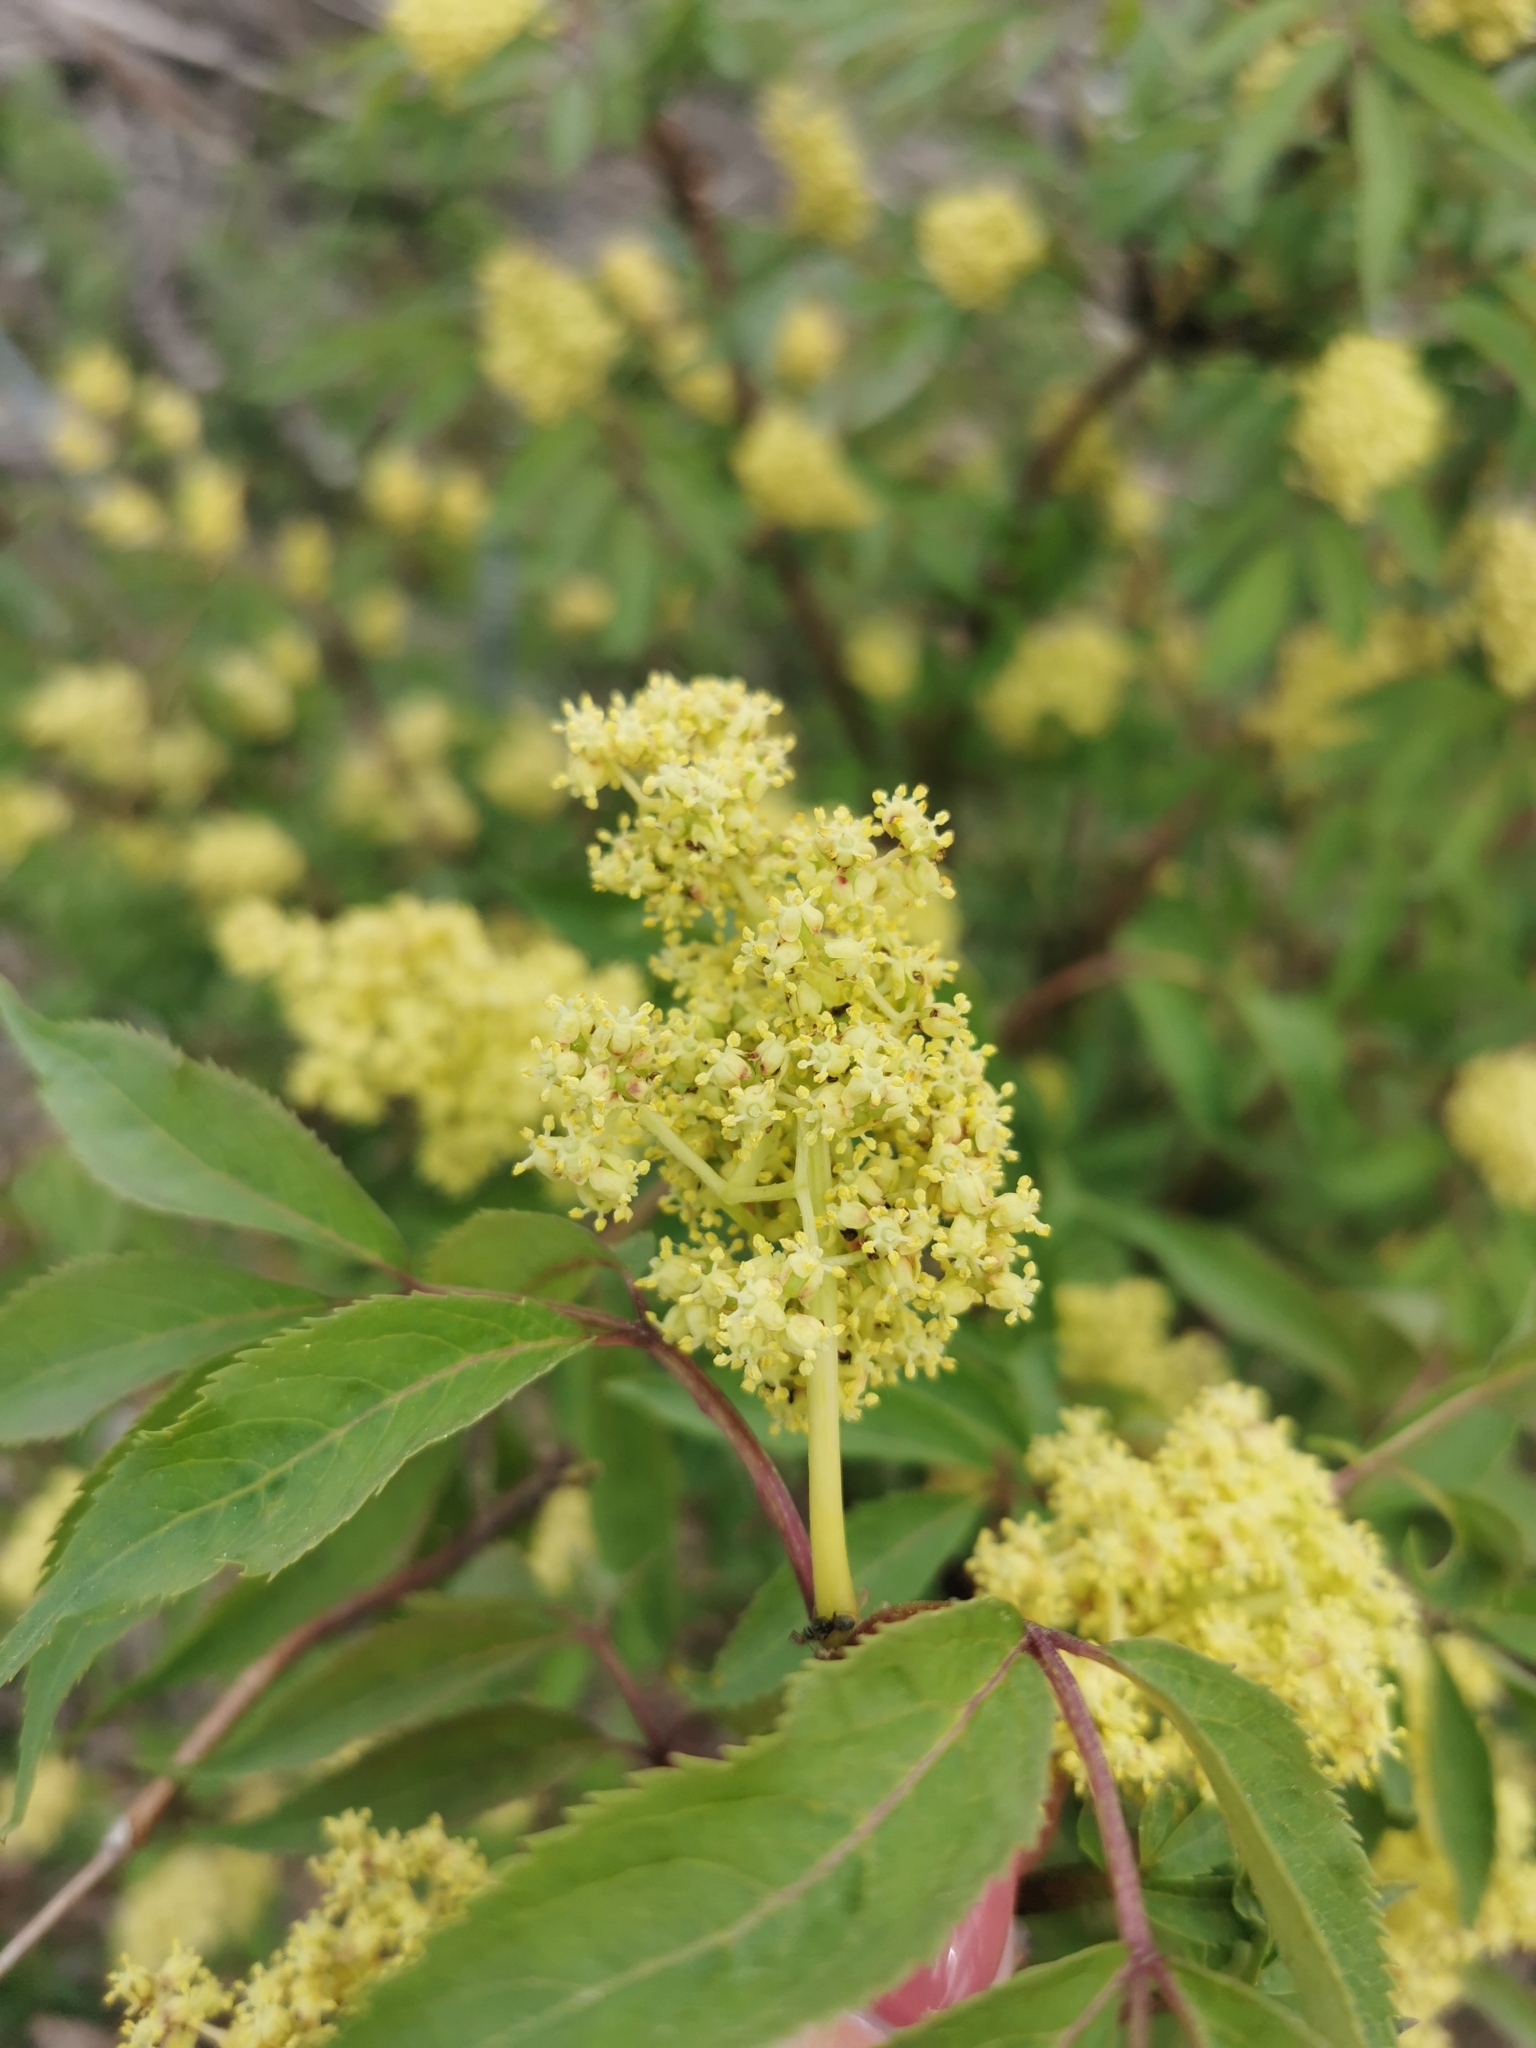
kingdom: Plantae
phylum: Tracheophyta
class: Magnoliopsida
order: Dipsacales
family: Viburnaceae
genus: Sambucus
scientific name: Sambucus racemosa
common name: Red-berried elder
